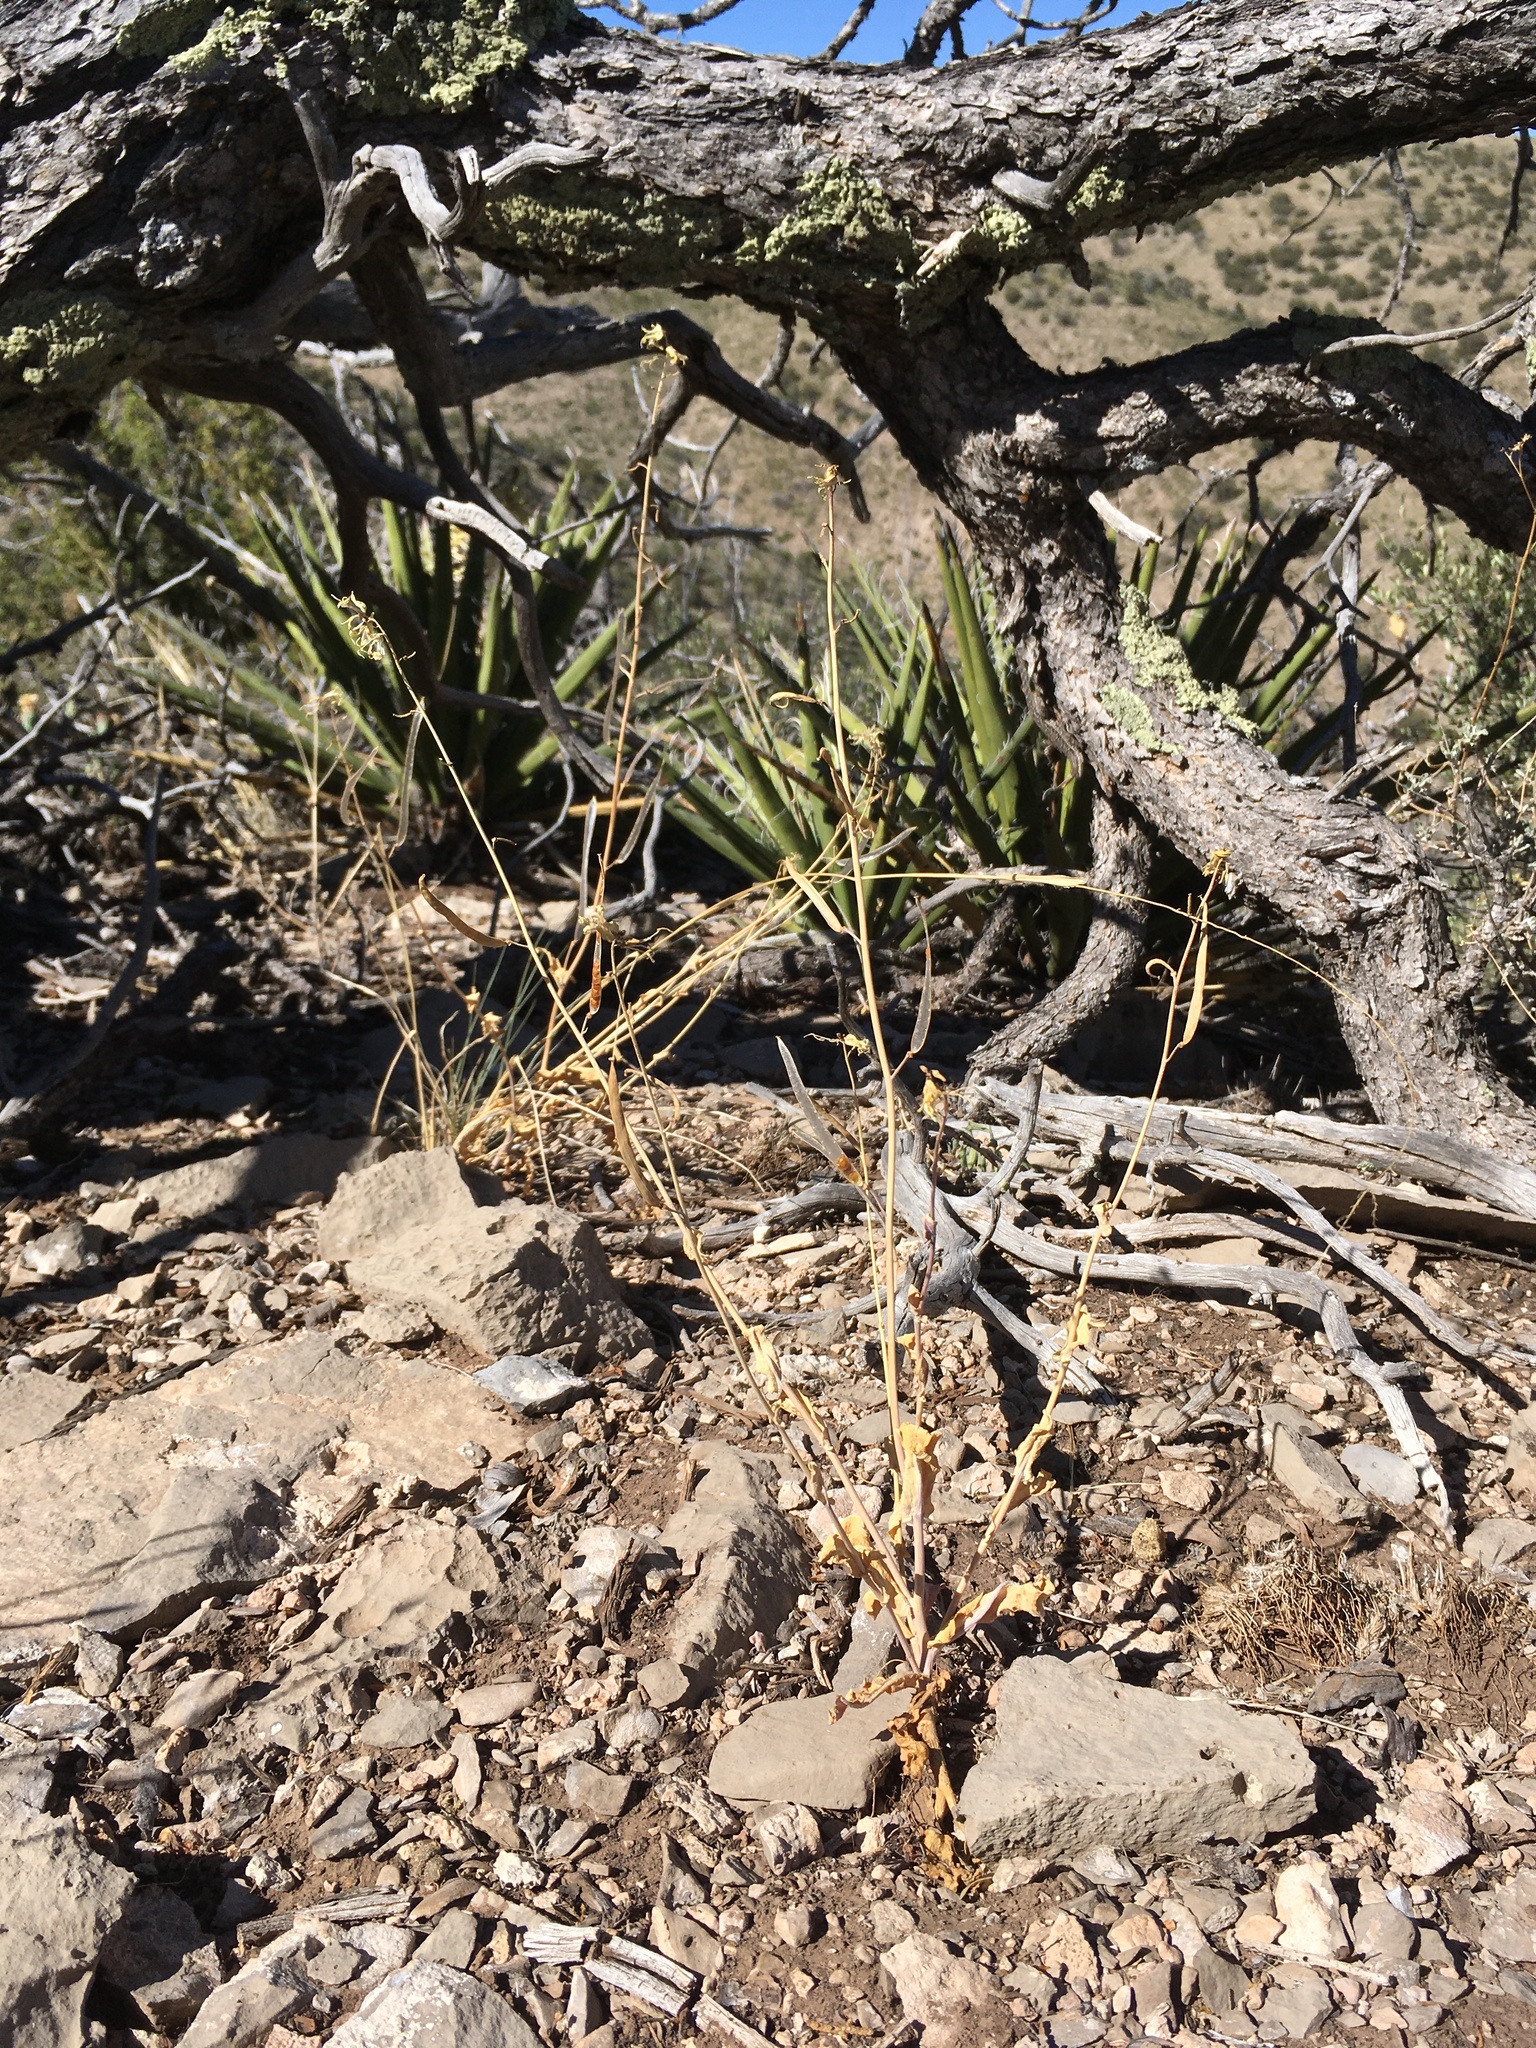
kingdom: Plantae
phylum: Tracheophyta
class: Magnoliopsida
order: Brassicales
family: Brassicaceae
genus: Streptanthus
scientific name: Streptanthus carinatus
